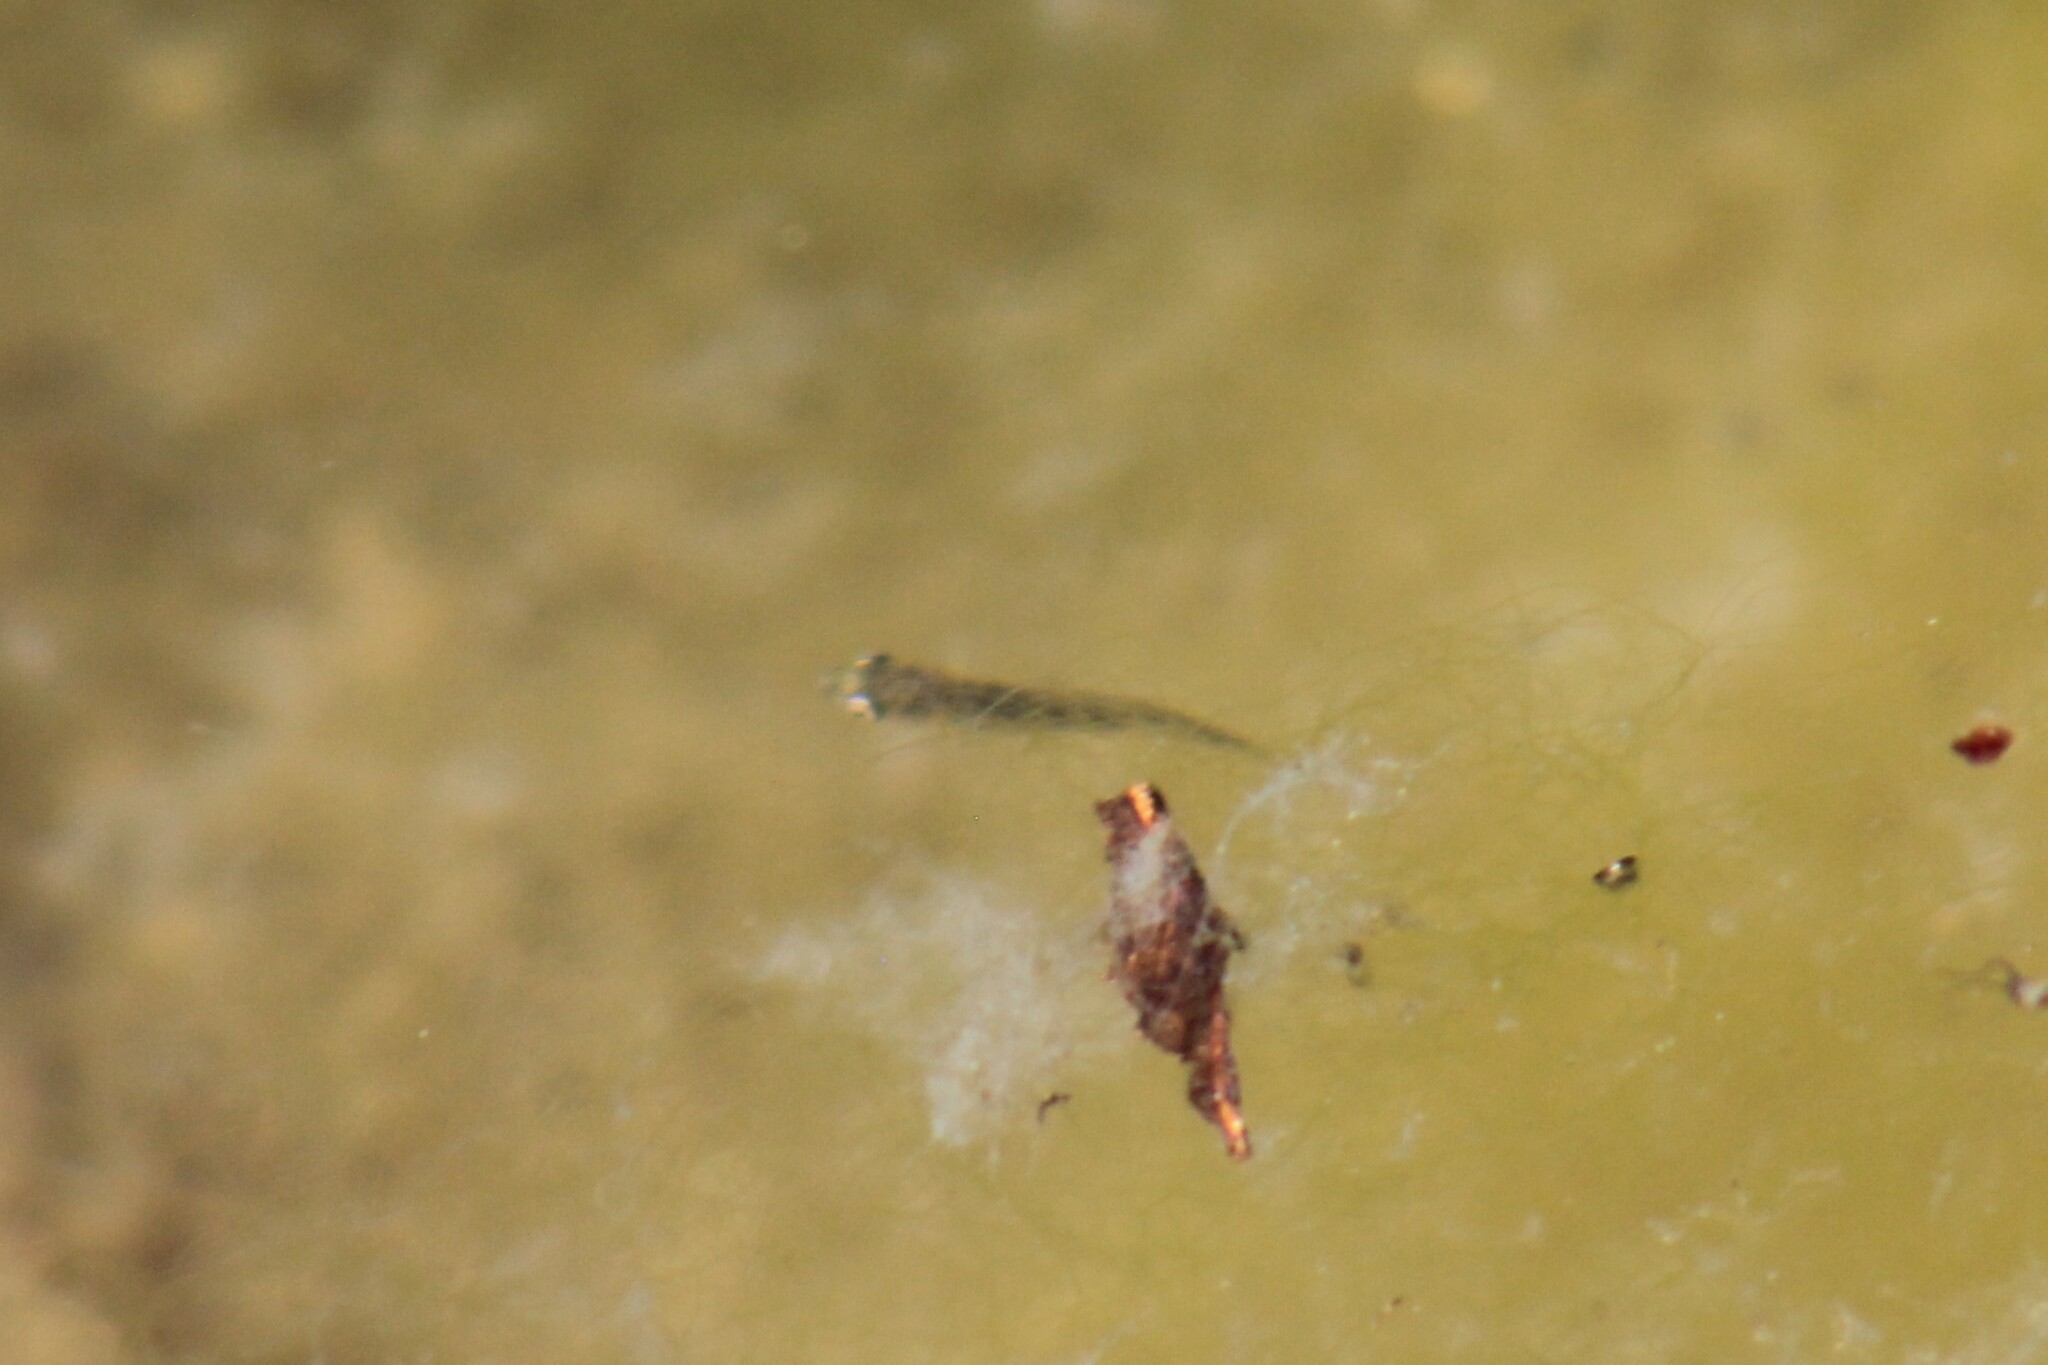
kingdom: Animalia
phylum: Chordata
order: Gasterosteiformes
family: Gasterosteidae
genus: Gasterosteus
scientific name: Gasterosteus aculeatus
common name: Three-spined stickleback
